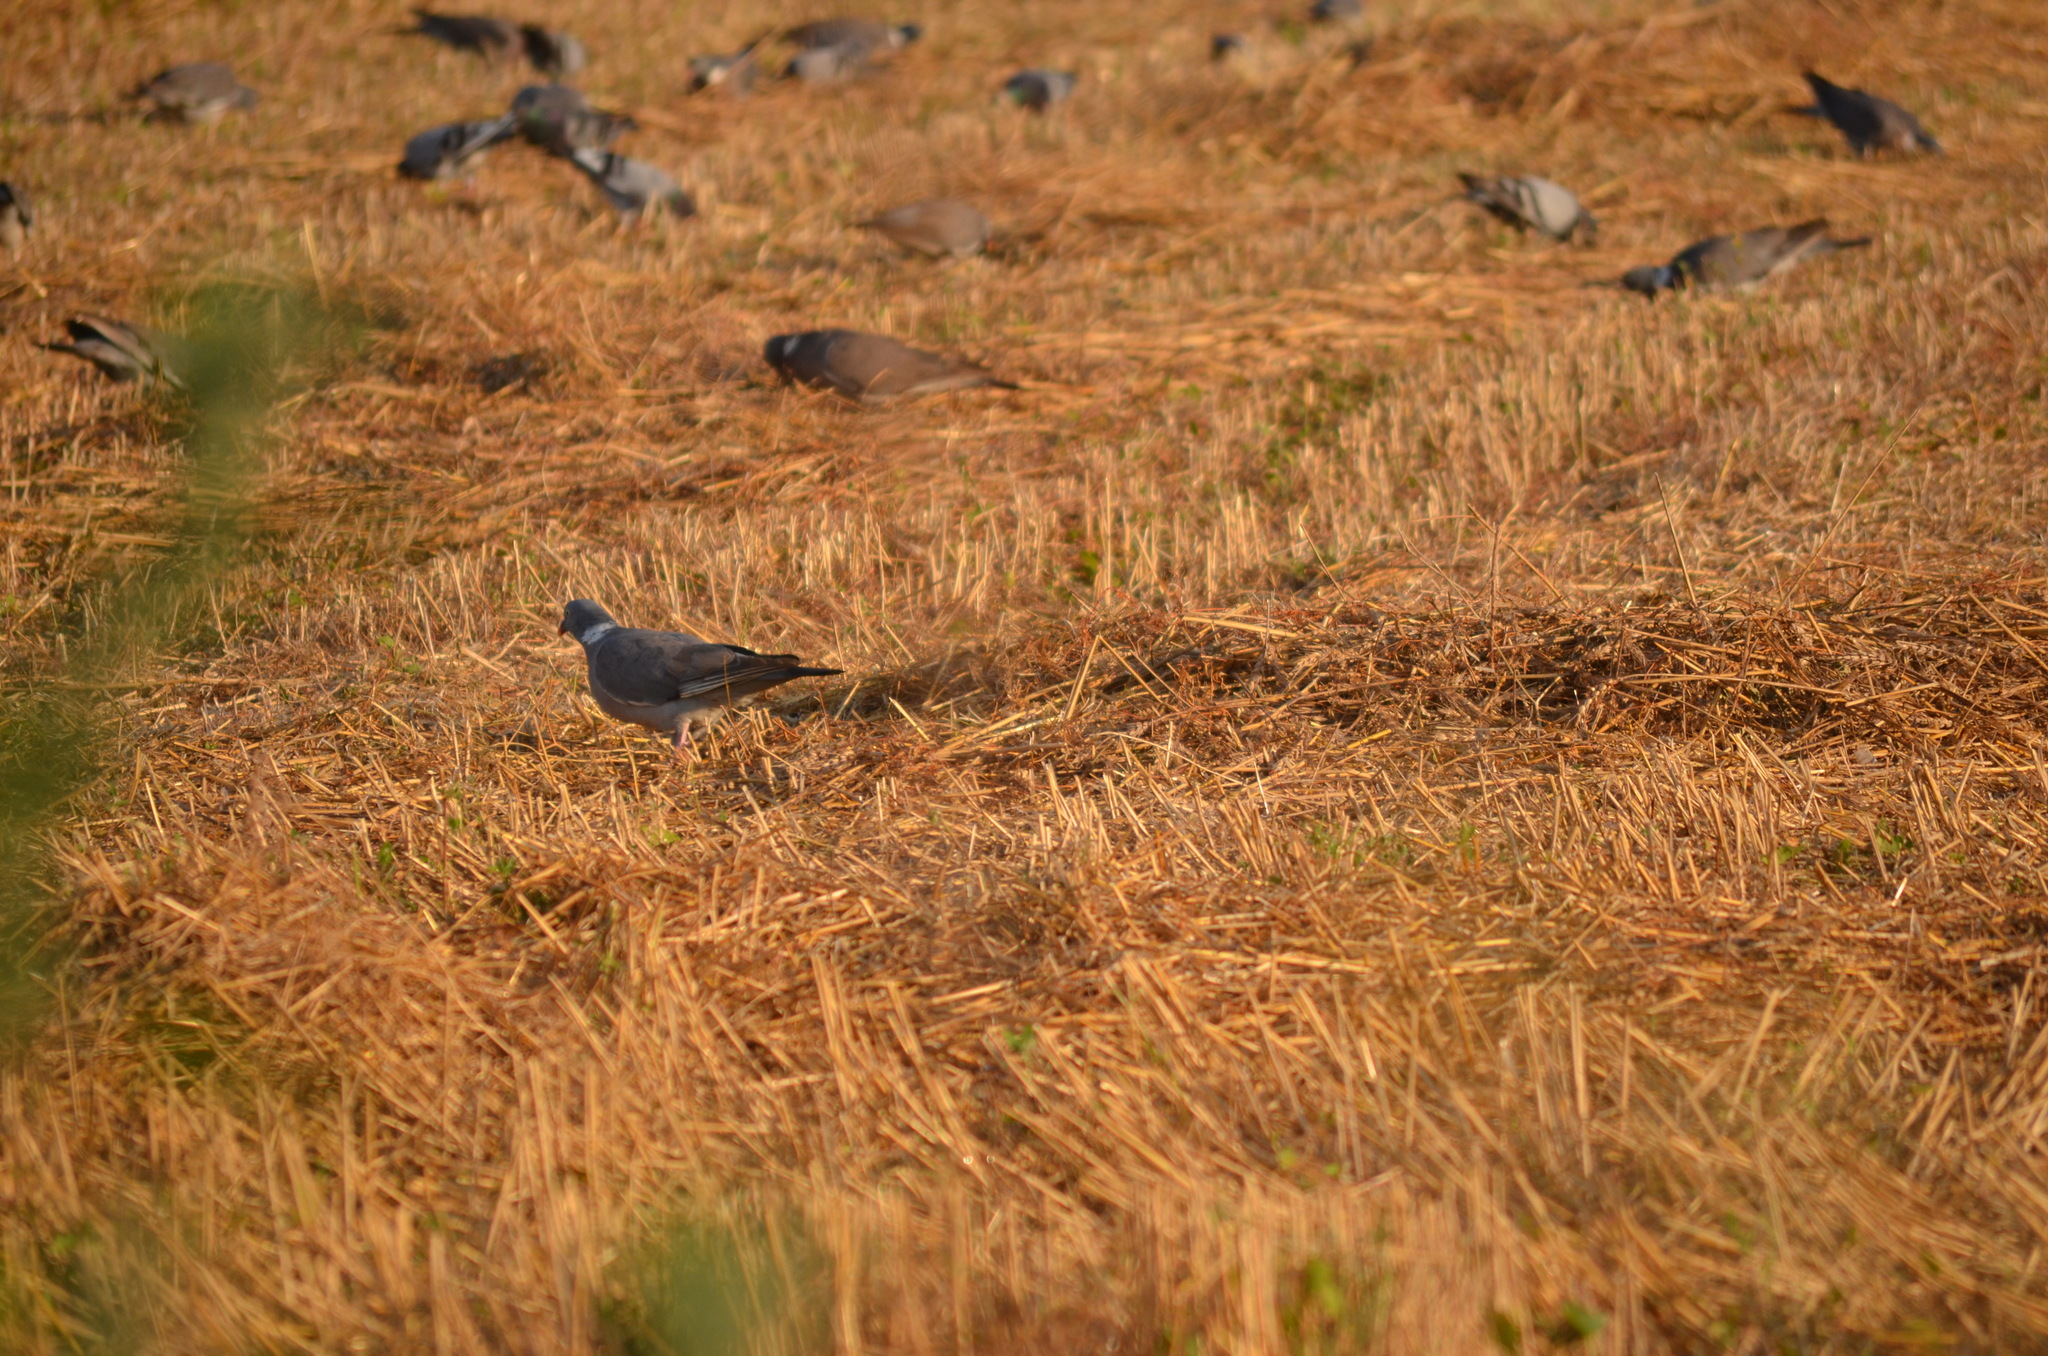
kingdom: Animalia
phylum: Chordata
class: Aves
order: Columbiformes
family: Columbidae
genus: Columba
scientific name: Columba palumbus
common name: Common wood pigeon
